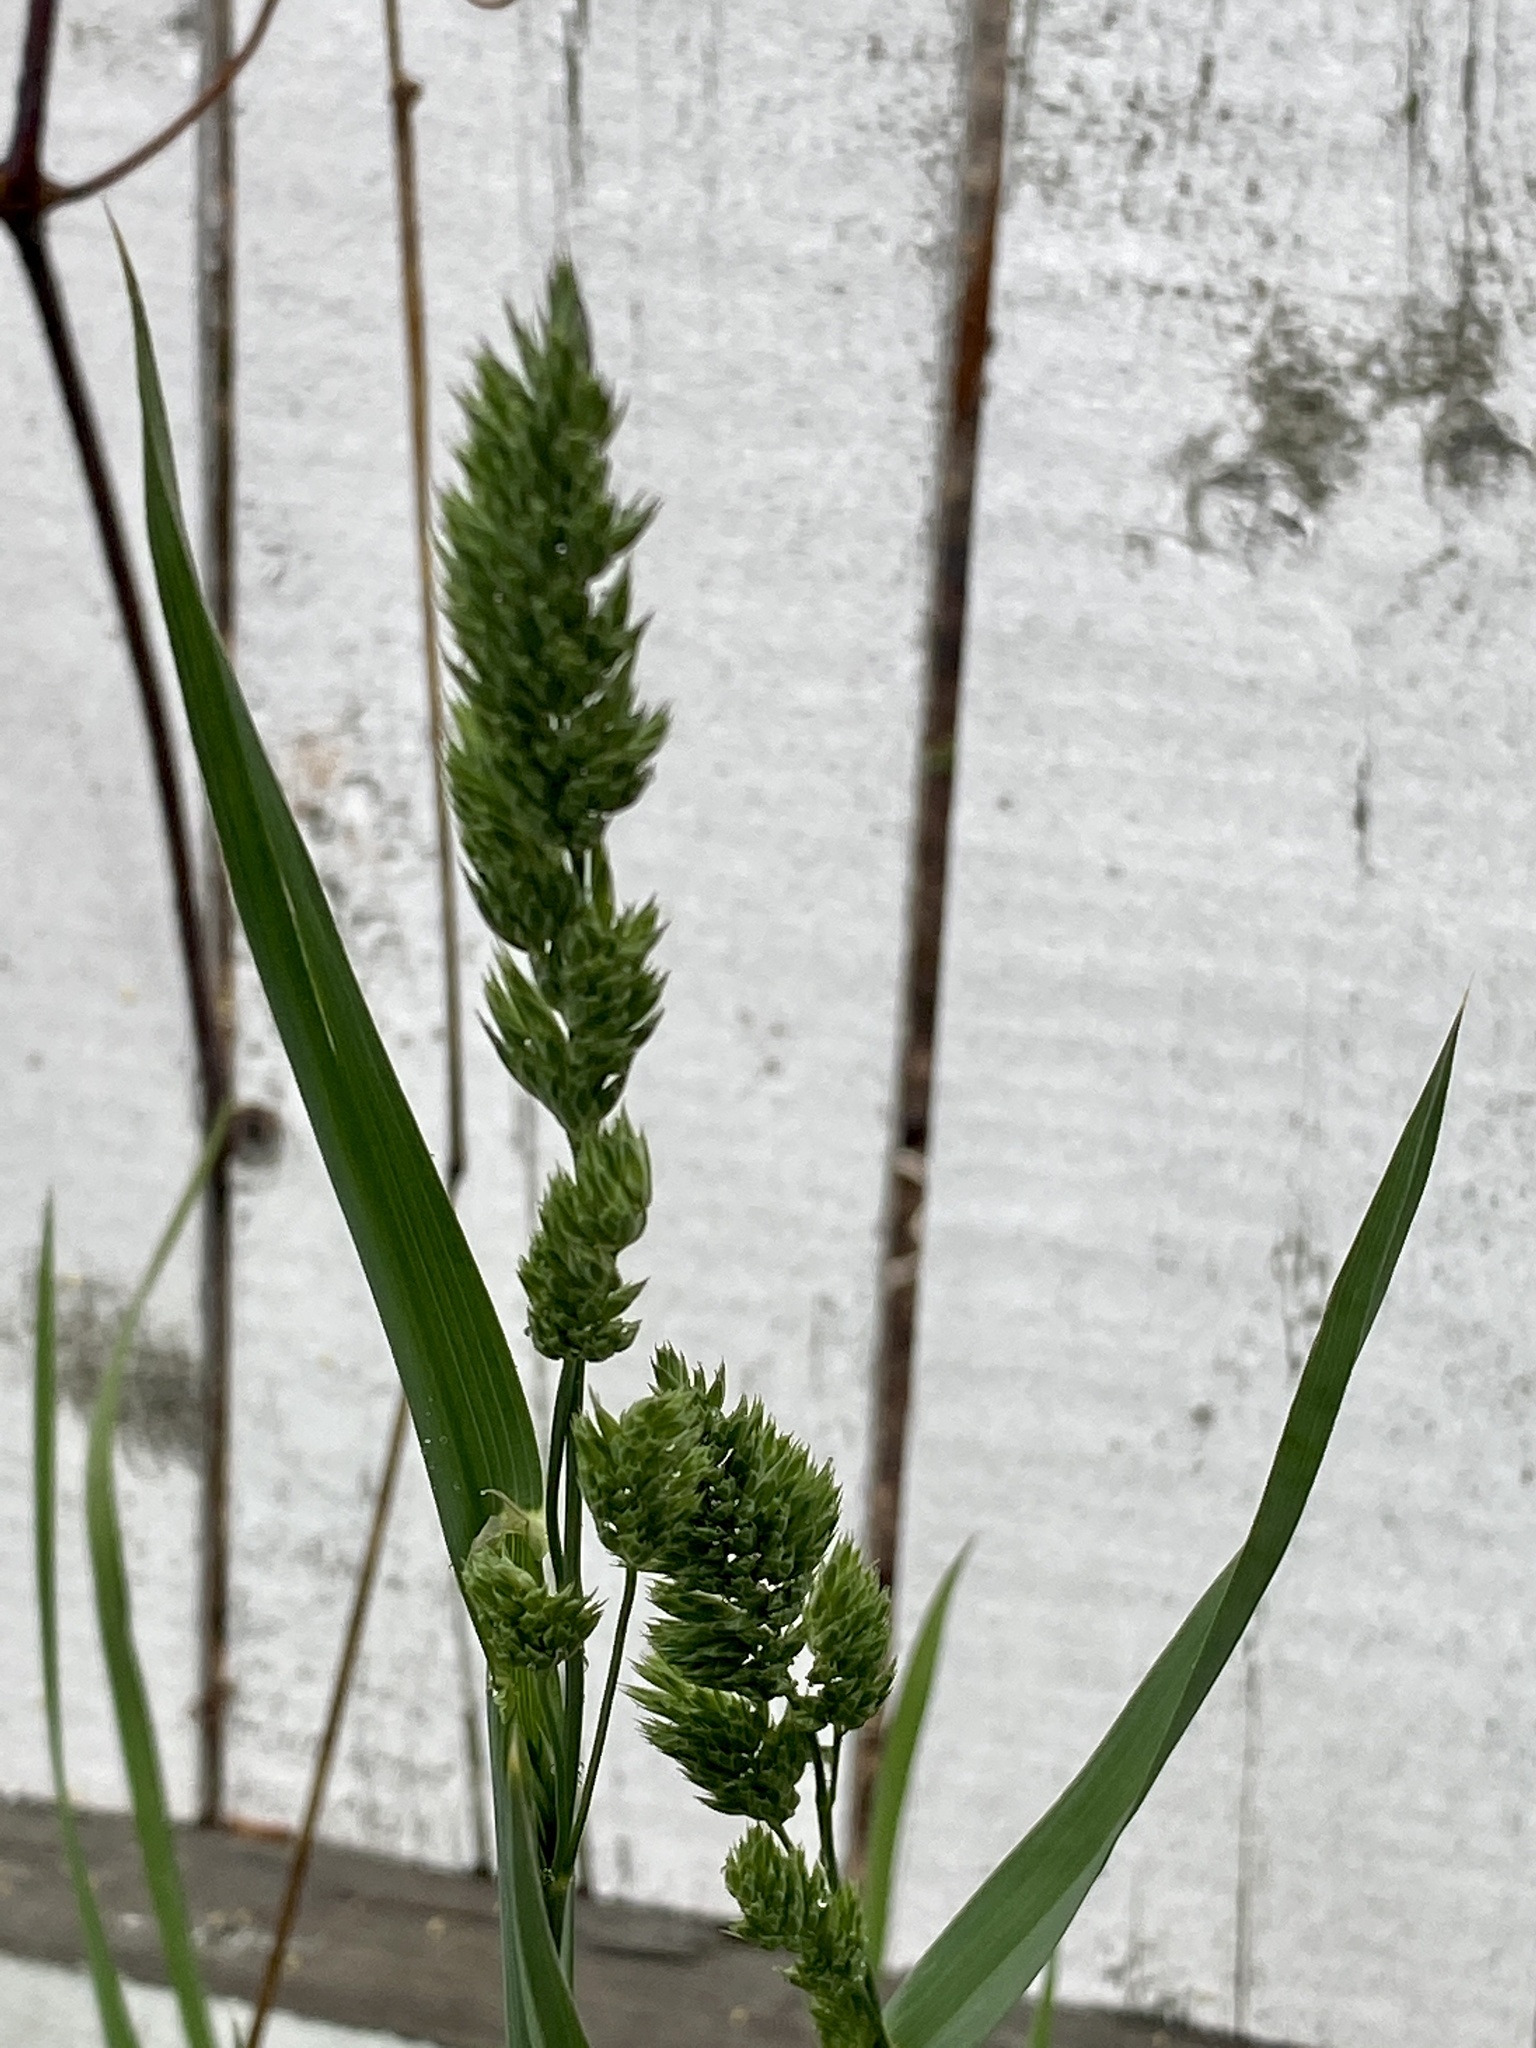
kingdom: Plantae
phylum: Tracheophyta
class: Liliopsida
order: Poales
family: Poaceae
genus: Dactylis
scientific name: Dactylis glomerata
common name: Orchardgrass
